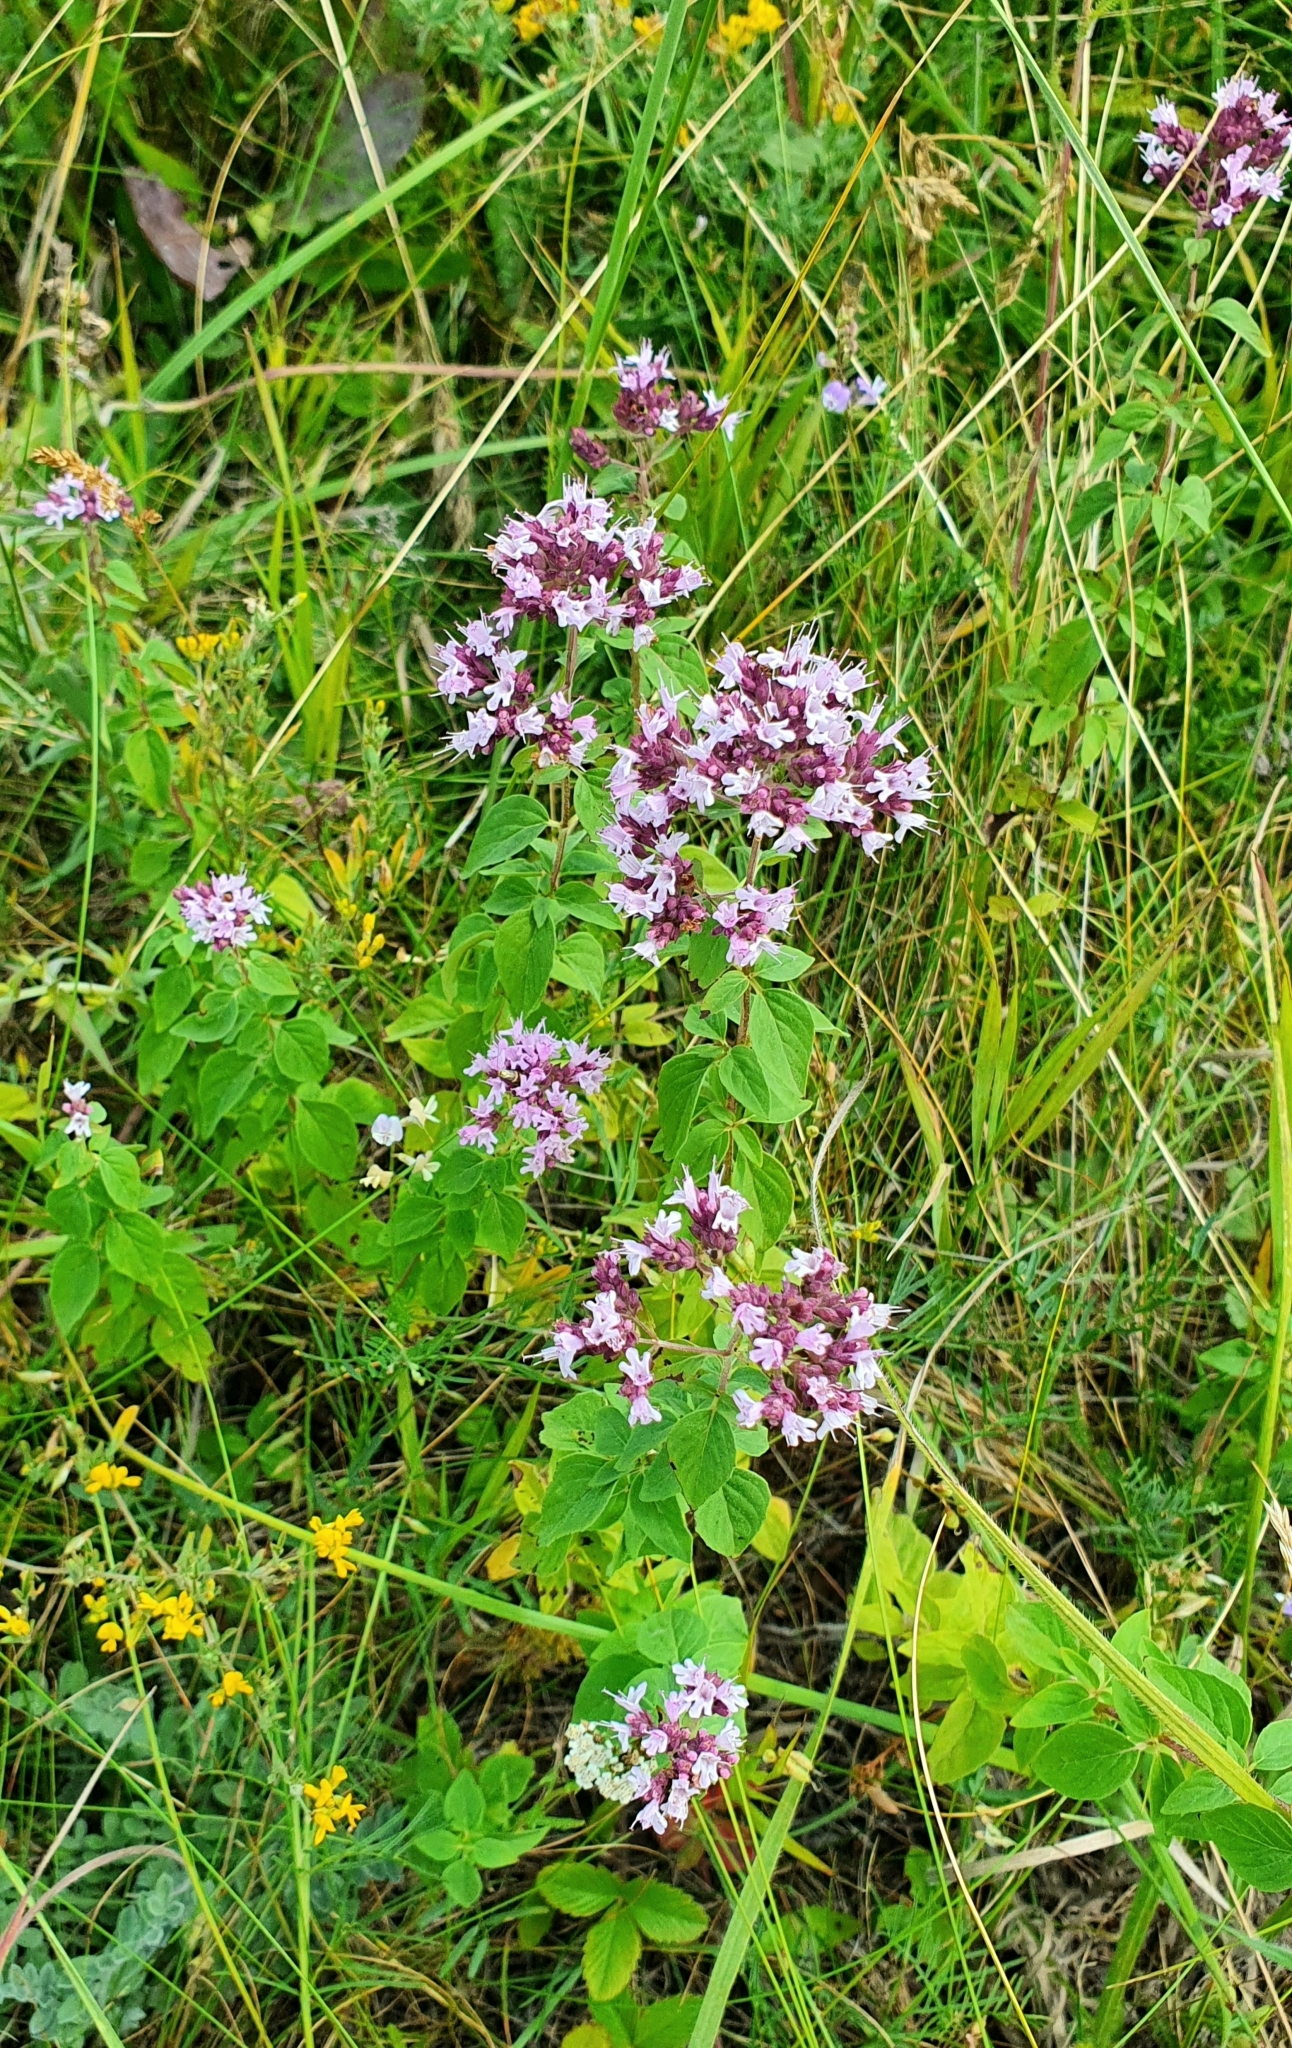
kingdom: Plantae
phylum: Tracheophyta
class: Magnoliopsida
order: Lamiales
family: Lamiaceae
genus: Origanum
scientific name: Origanum vulgare
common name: Wild marjoram
